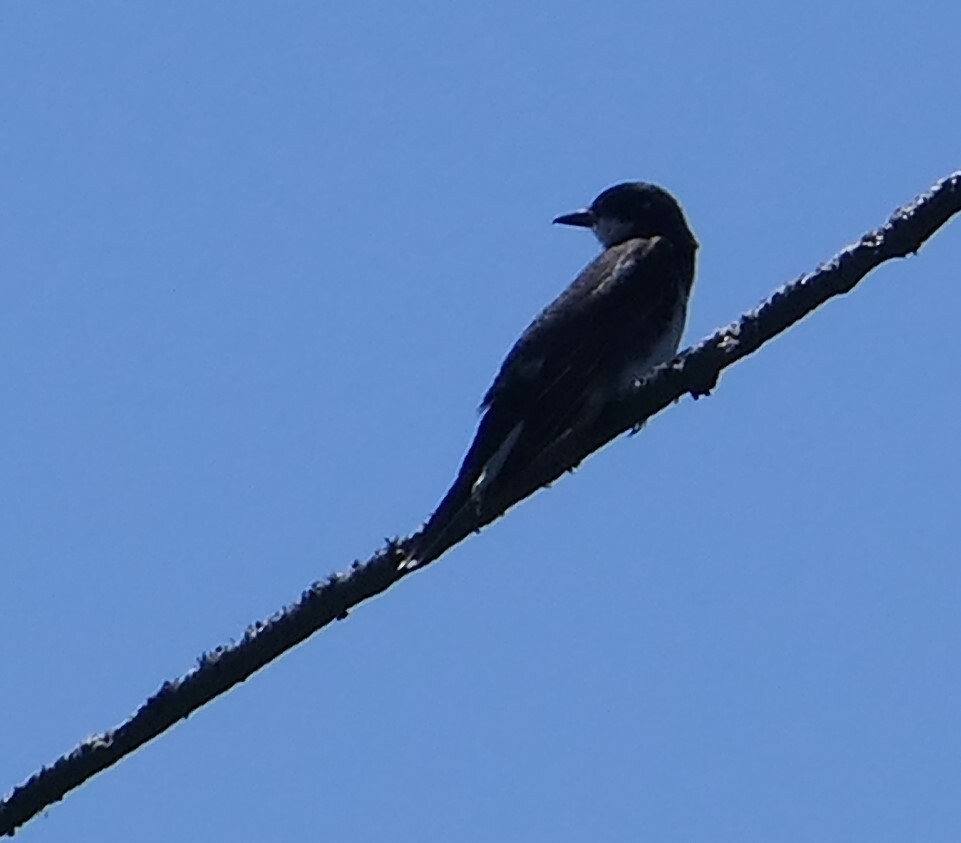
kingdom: Animalia
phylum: Chordata
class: Aves
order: Passeriformes
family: Tyrannidae
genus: Tyrannus
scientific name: Tyrannus tyrannus
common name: Eastern kingbird
